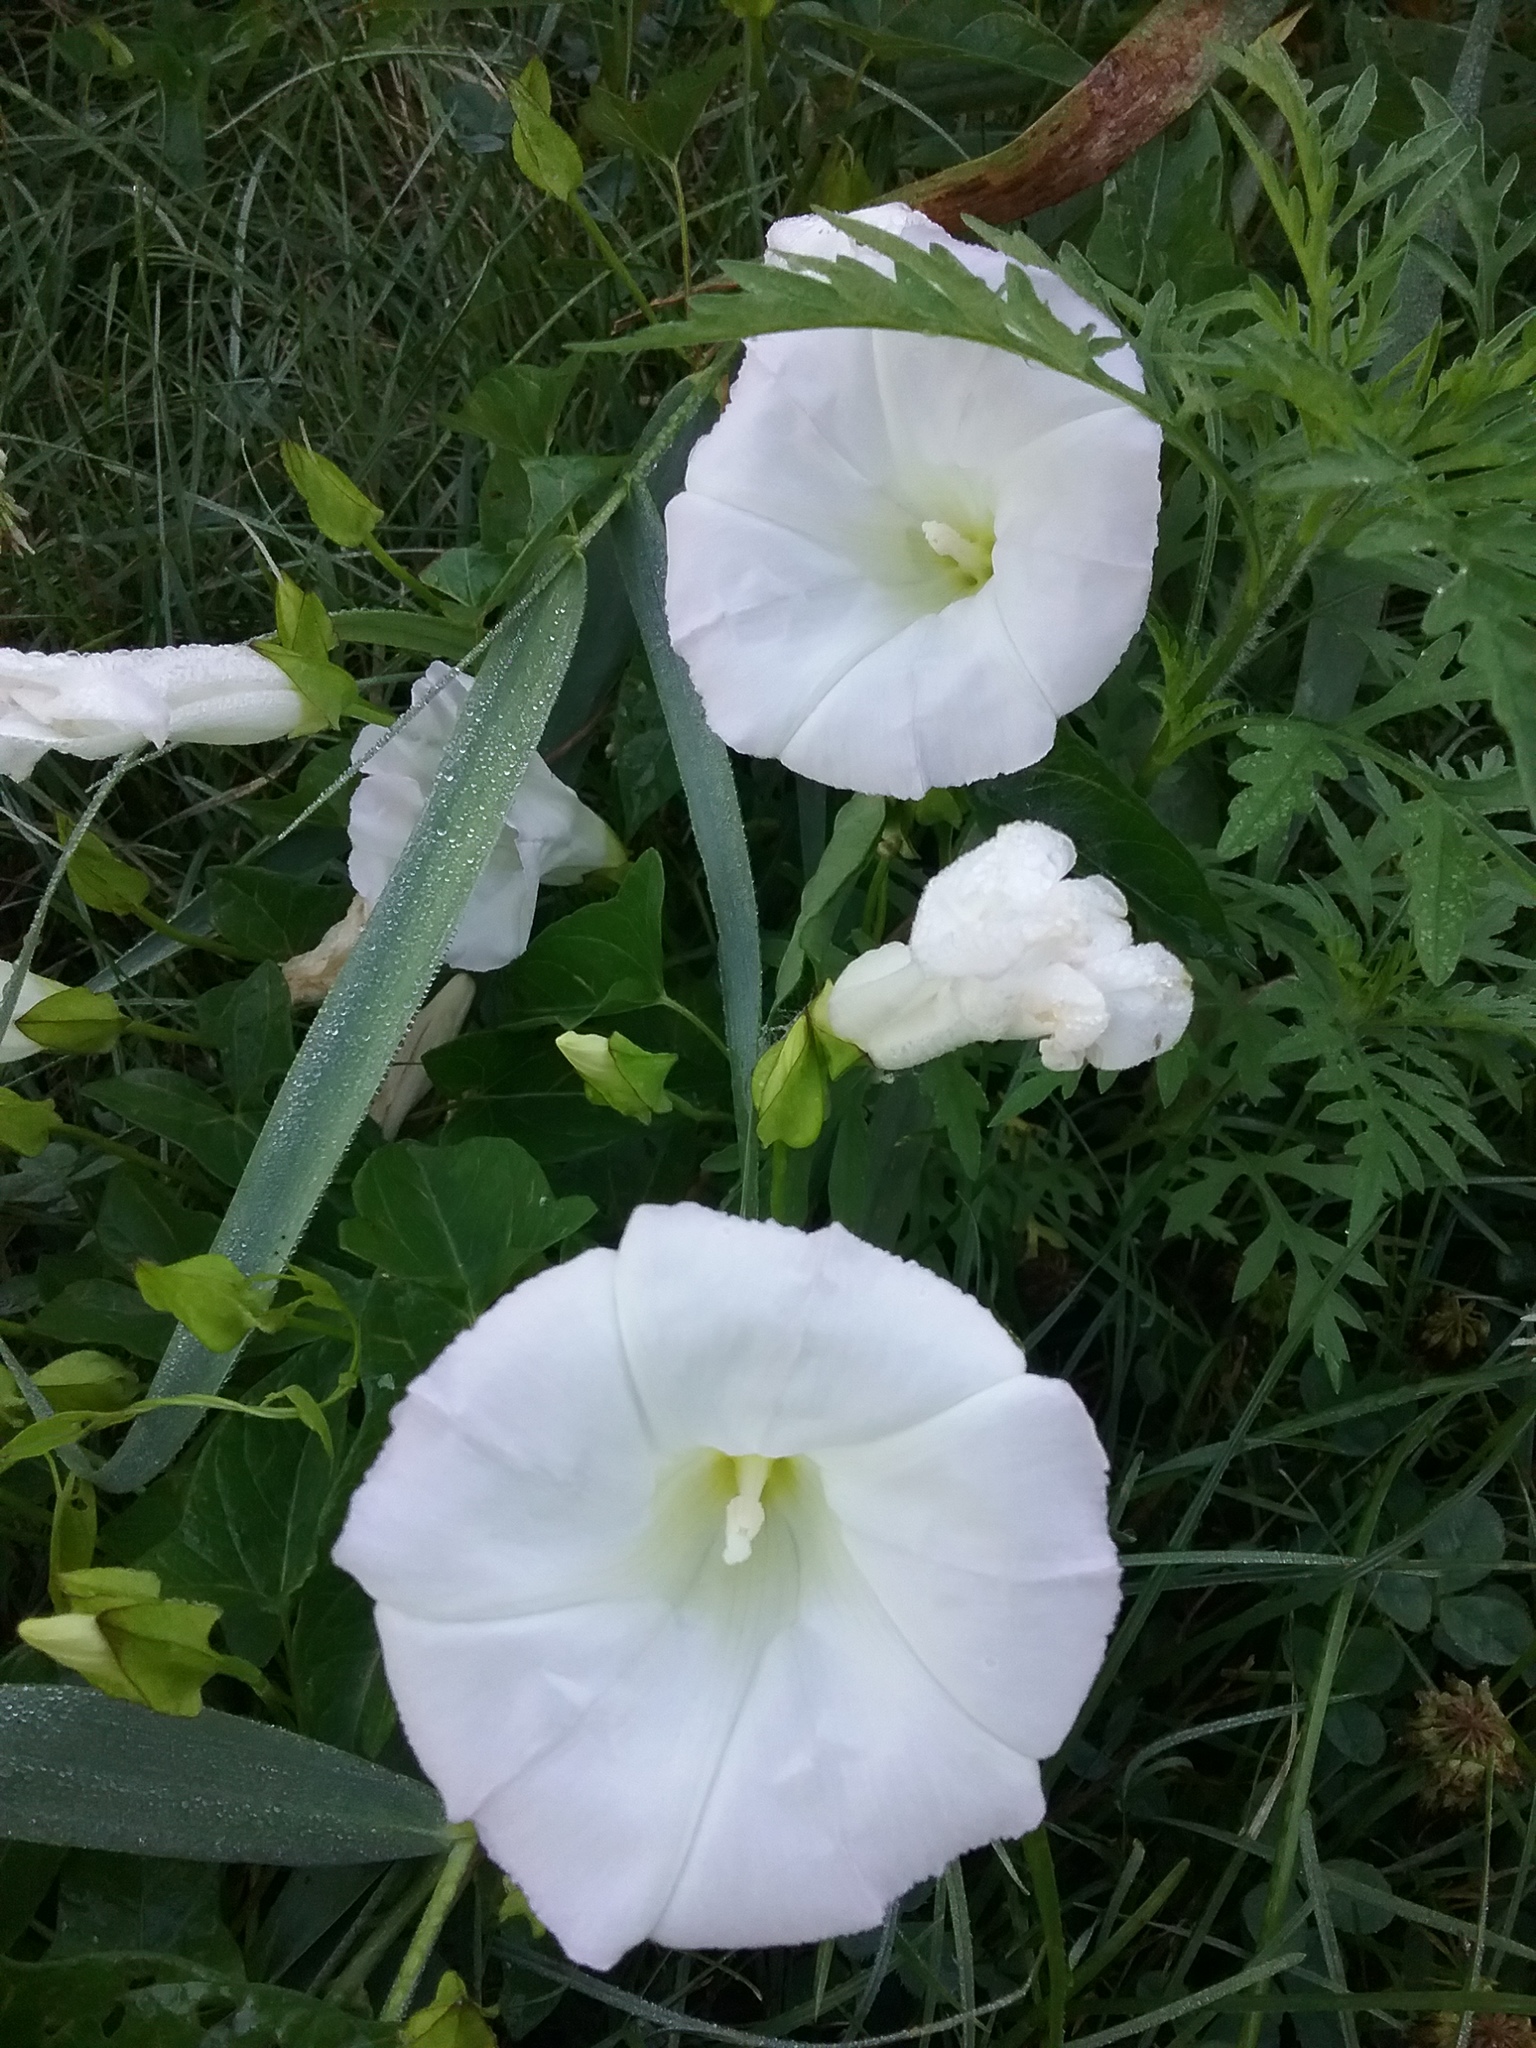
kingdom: Plantae
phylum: Tracheophyta
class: Magnoliopsida
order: Solanales
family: Convolvulaceae
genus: Calystegia
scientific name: Calystegia sepium
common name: Hedge bindweed
